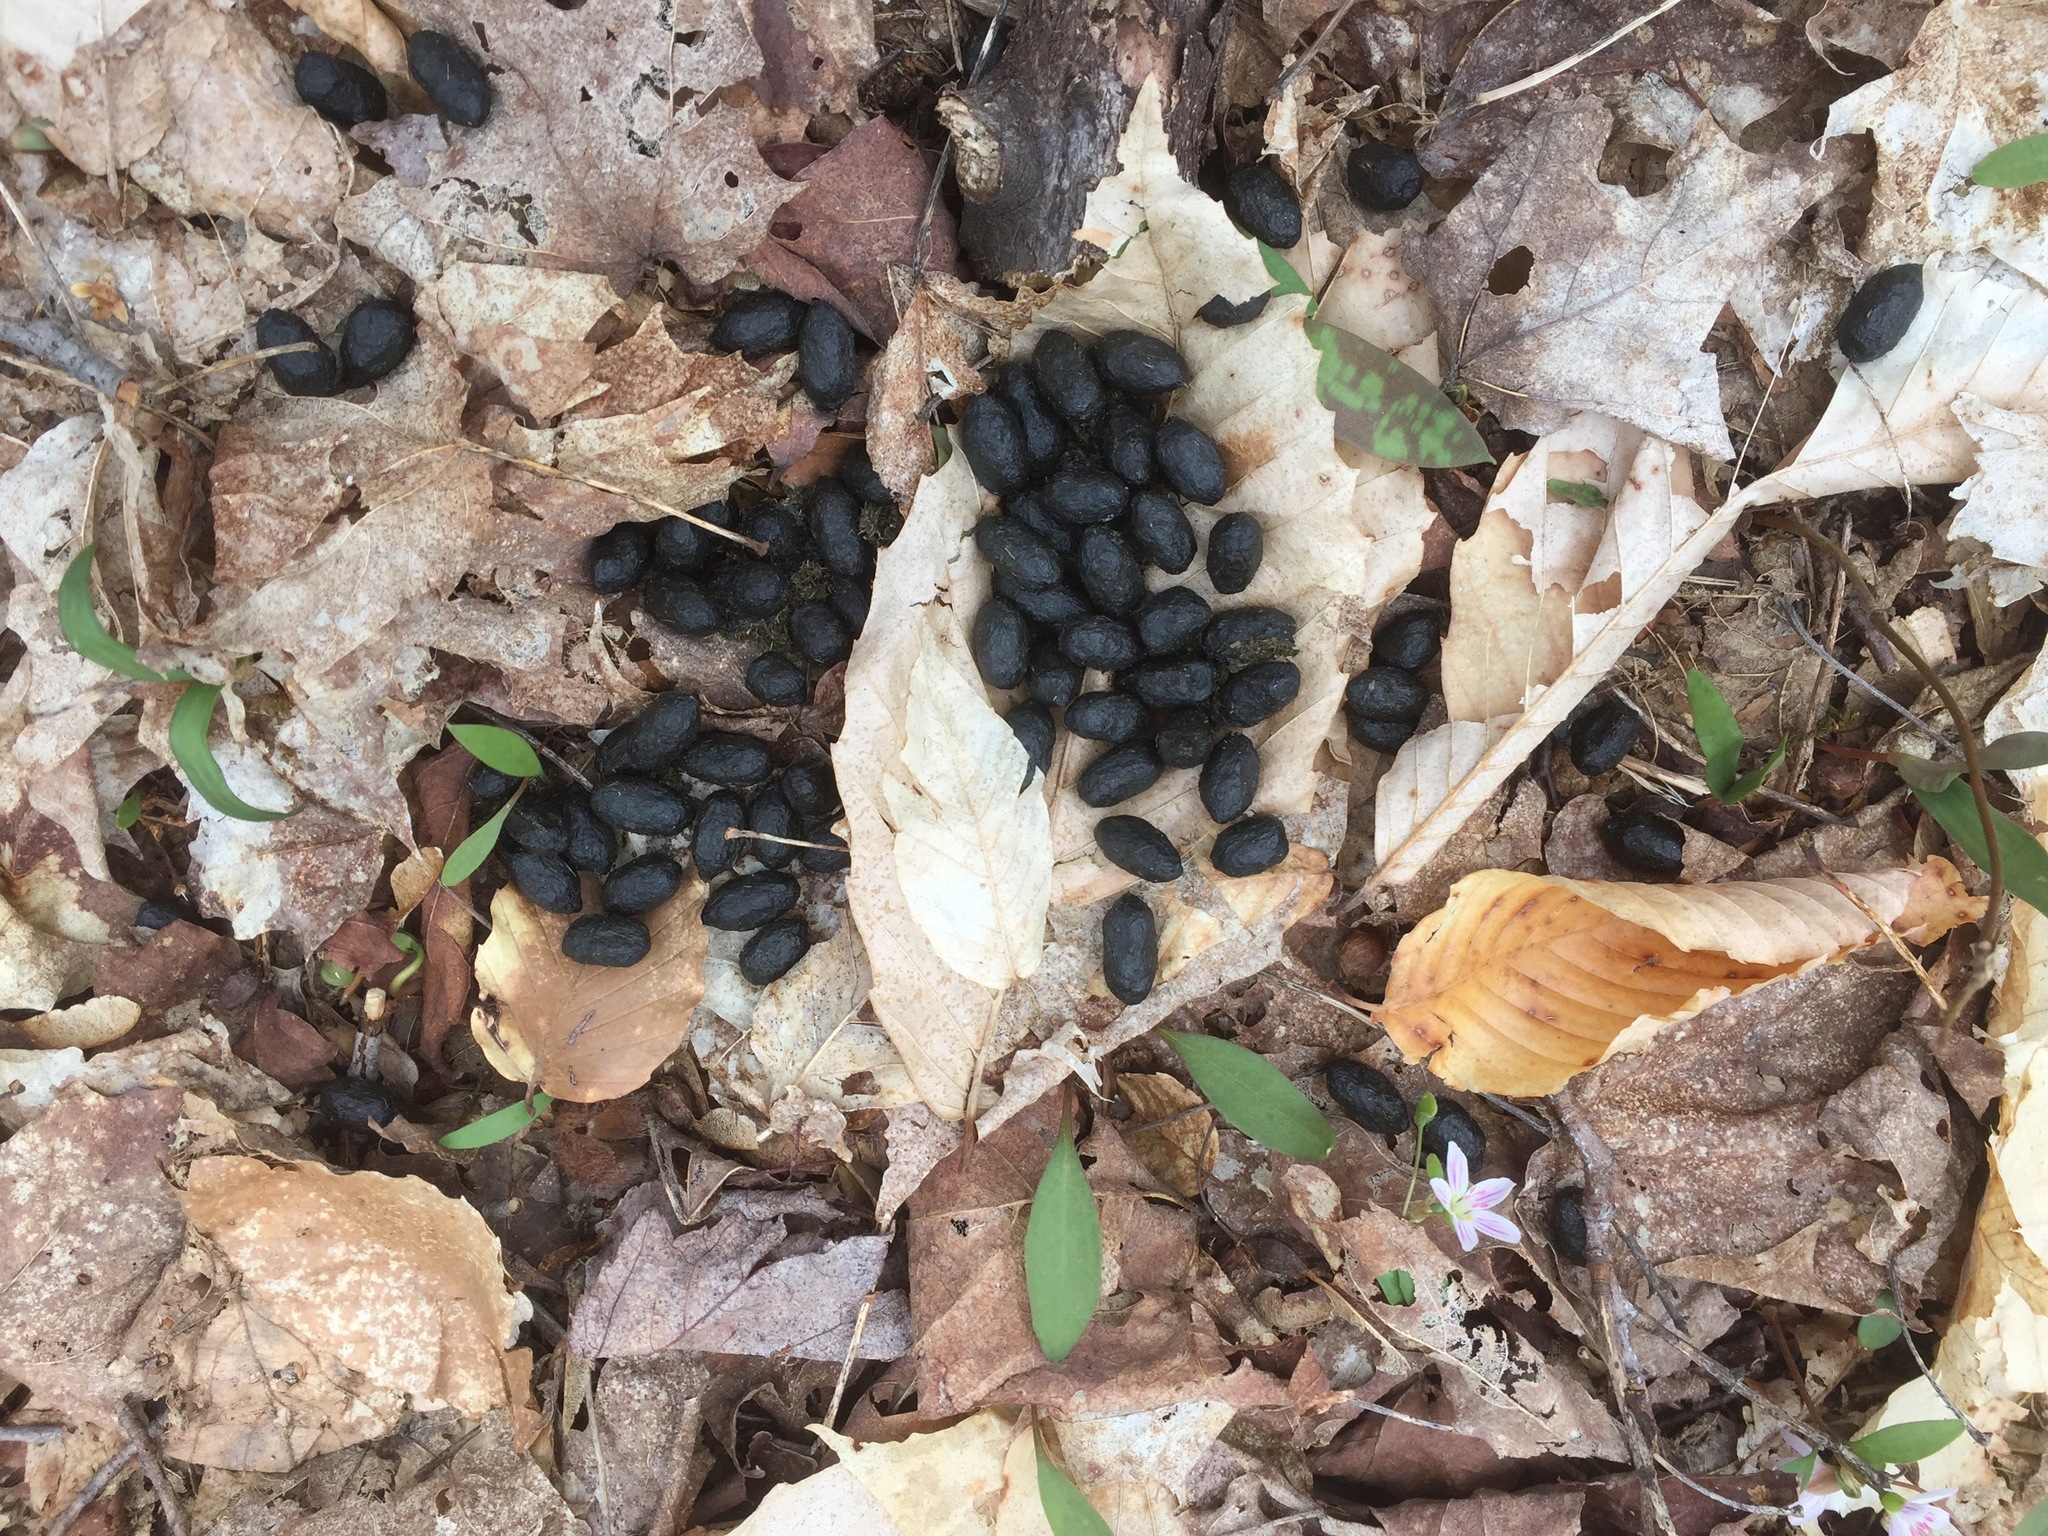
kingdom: Animalia
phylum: Chordata
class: Mammalia
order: Artiodactyla
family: Cervidae
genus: Odocoileus
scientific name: Odocoileus virginianus
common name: White-tailed deer
